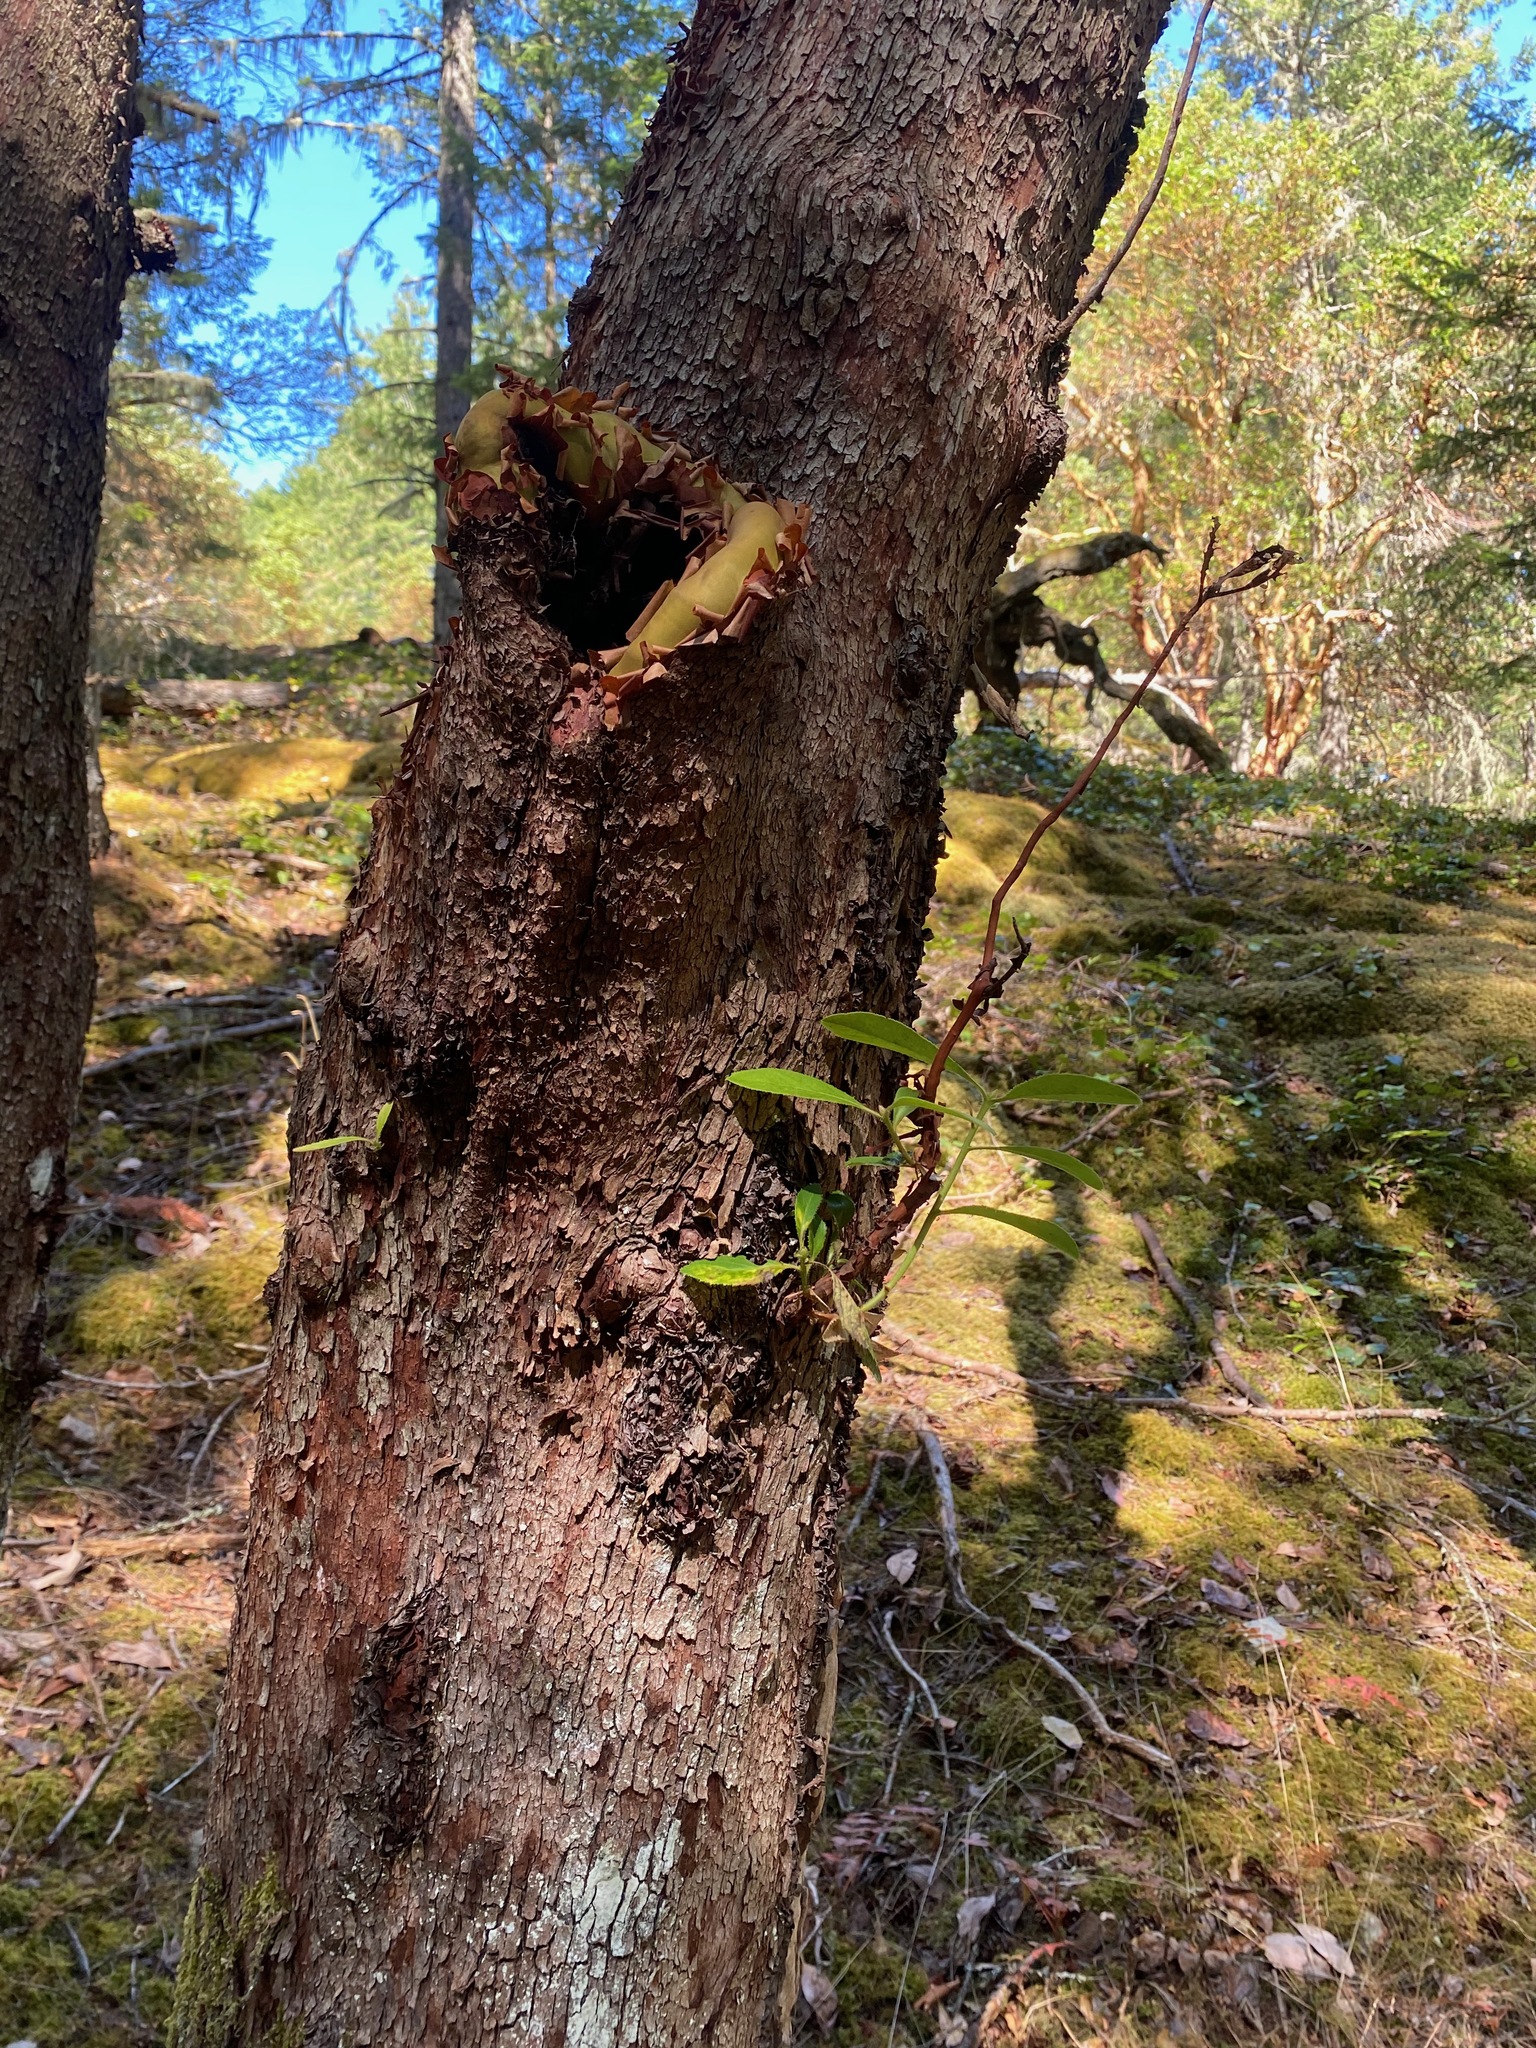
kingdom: Plantae
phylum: Tracheophyta
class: Magnoliopsida
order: Ericales
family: Ericaceae
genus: Arbutus
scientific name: Arbutus menziesii
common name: Pacific madrone
